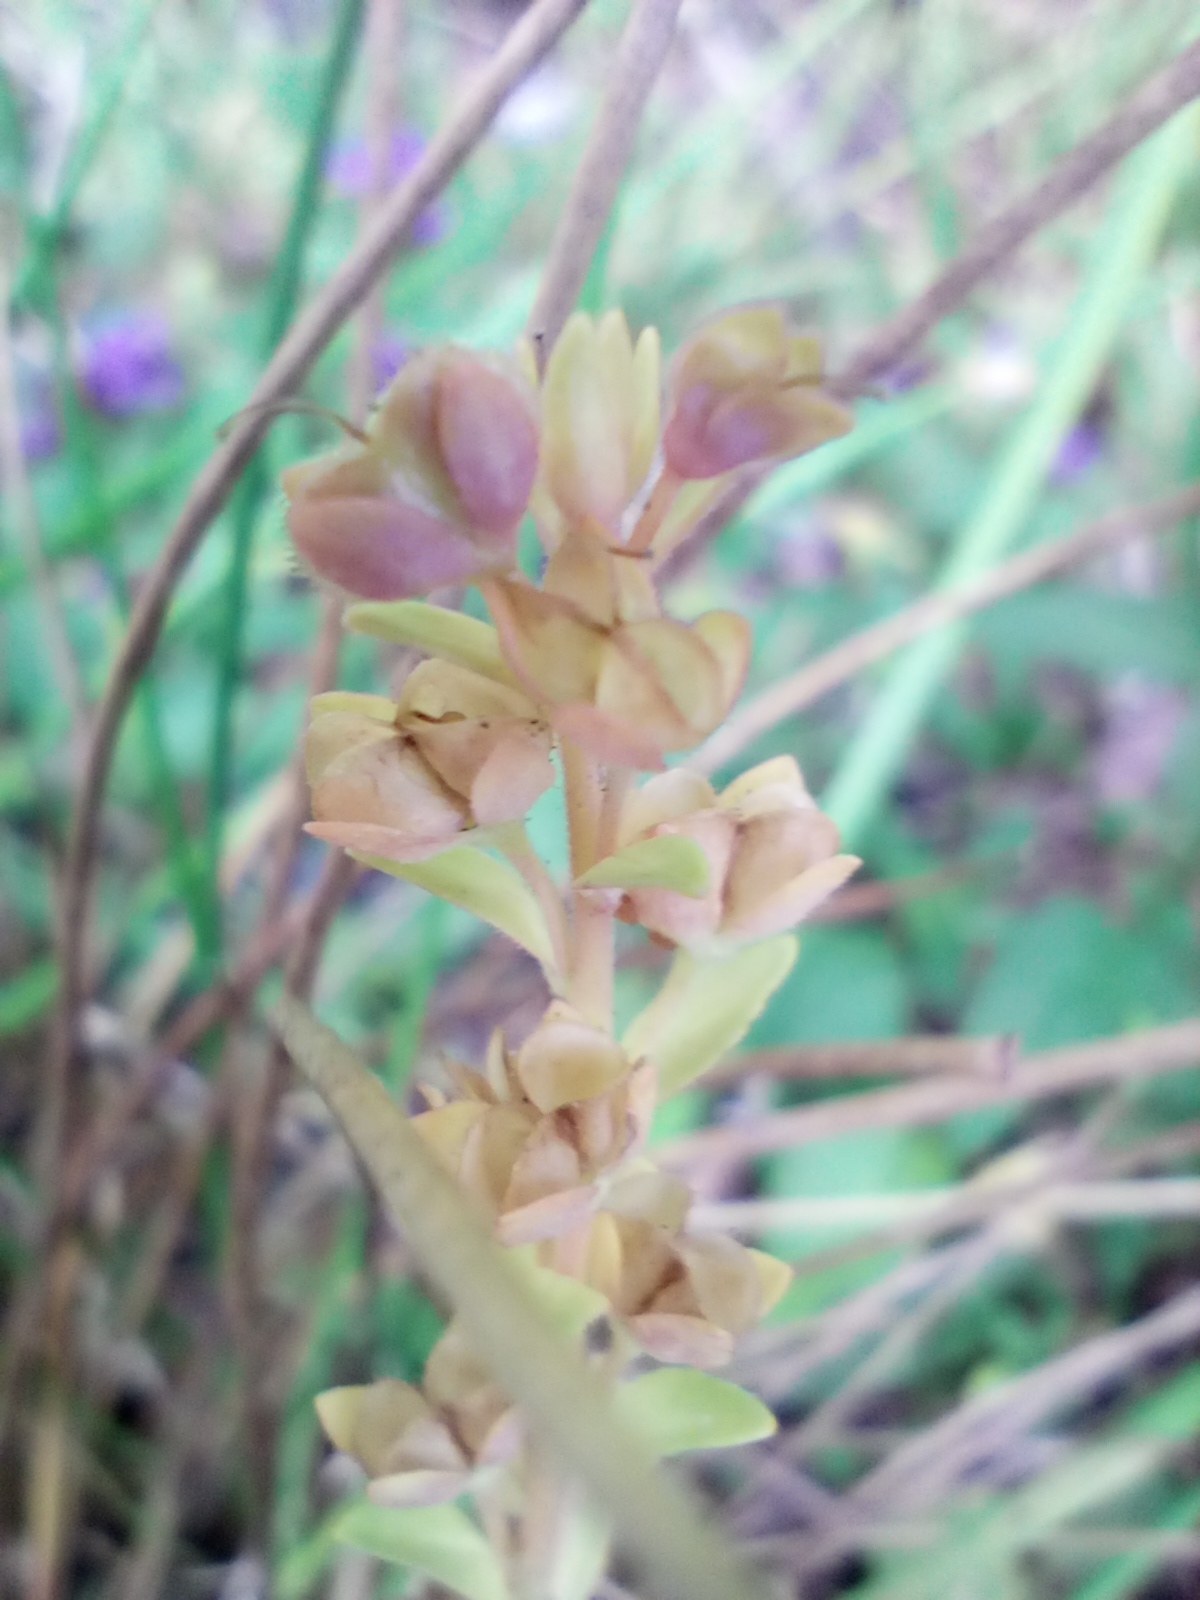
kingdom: Plantae
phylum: Tracheophyta
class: Magnoliopsida
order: Lamiales
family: Plantaginaceae
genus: Veronica
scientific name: Veronica serpyllifolia
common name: Thyme-leaved speedwell
